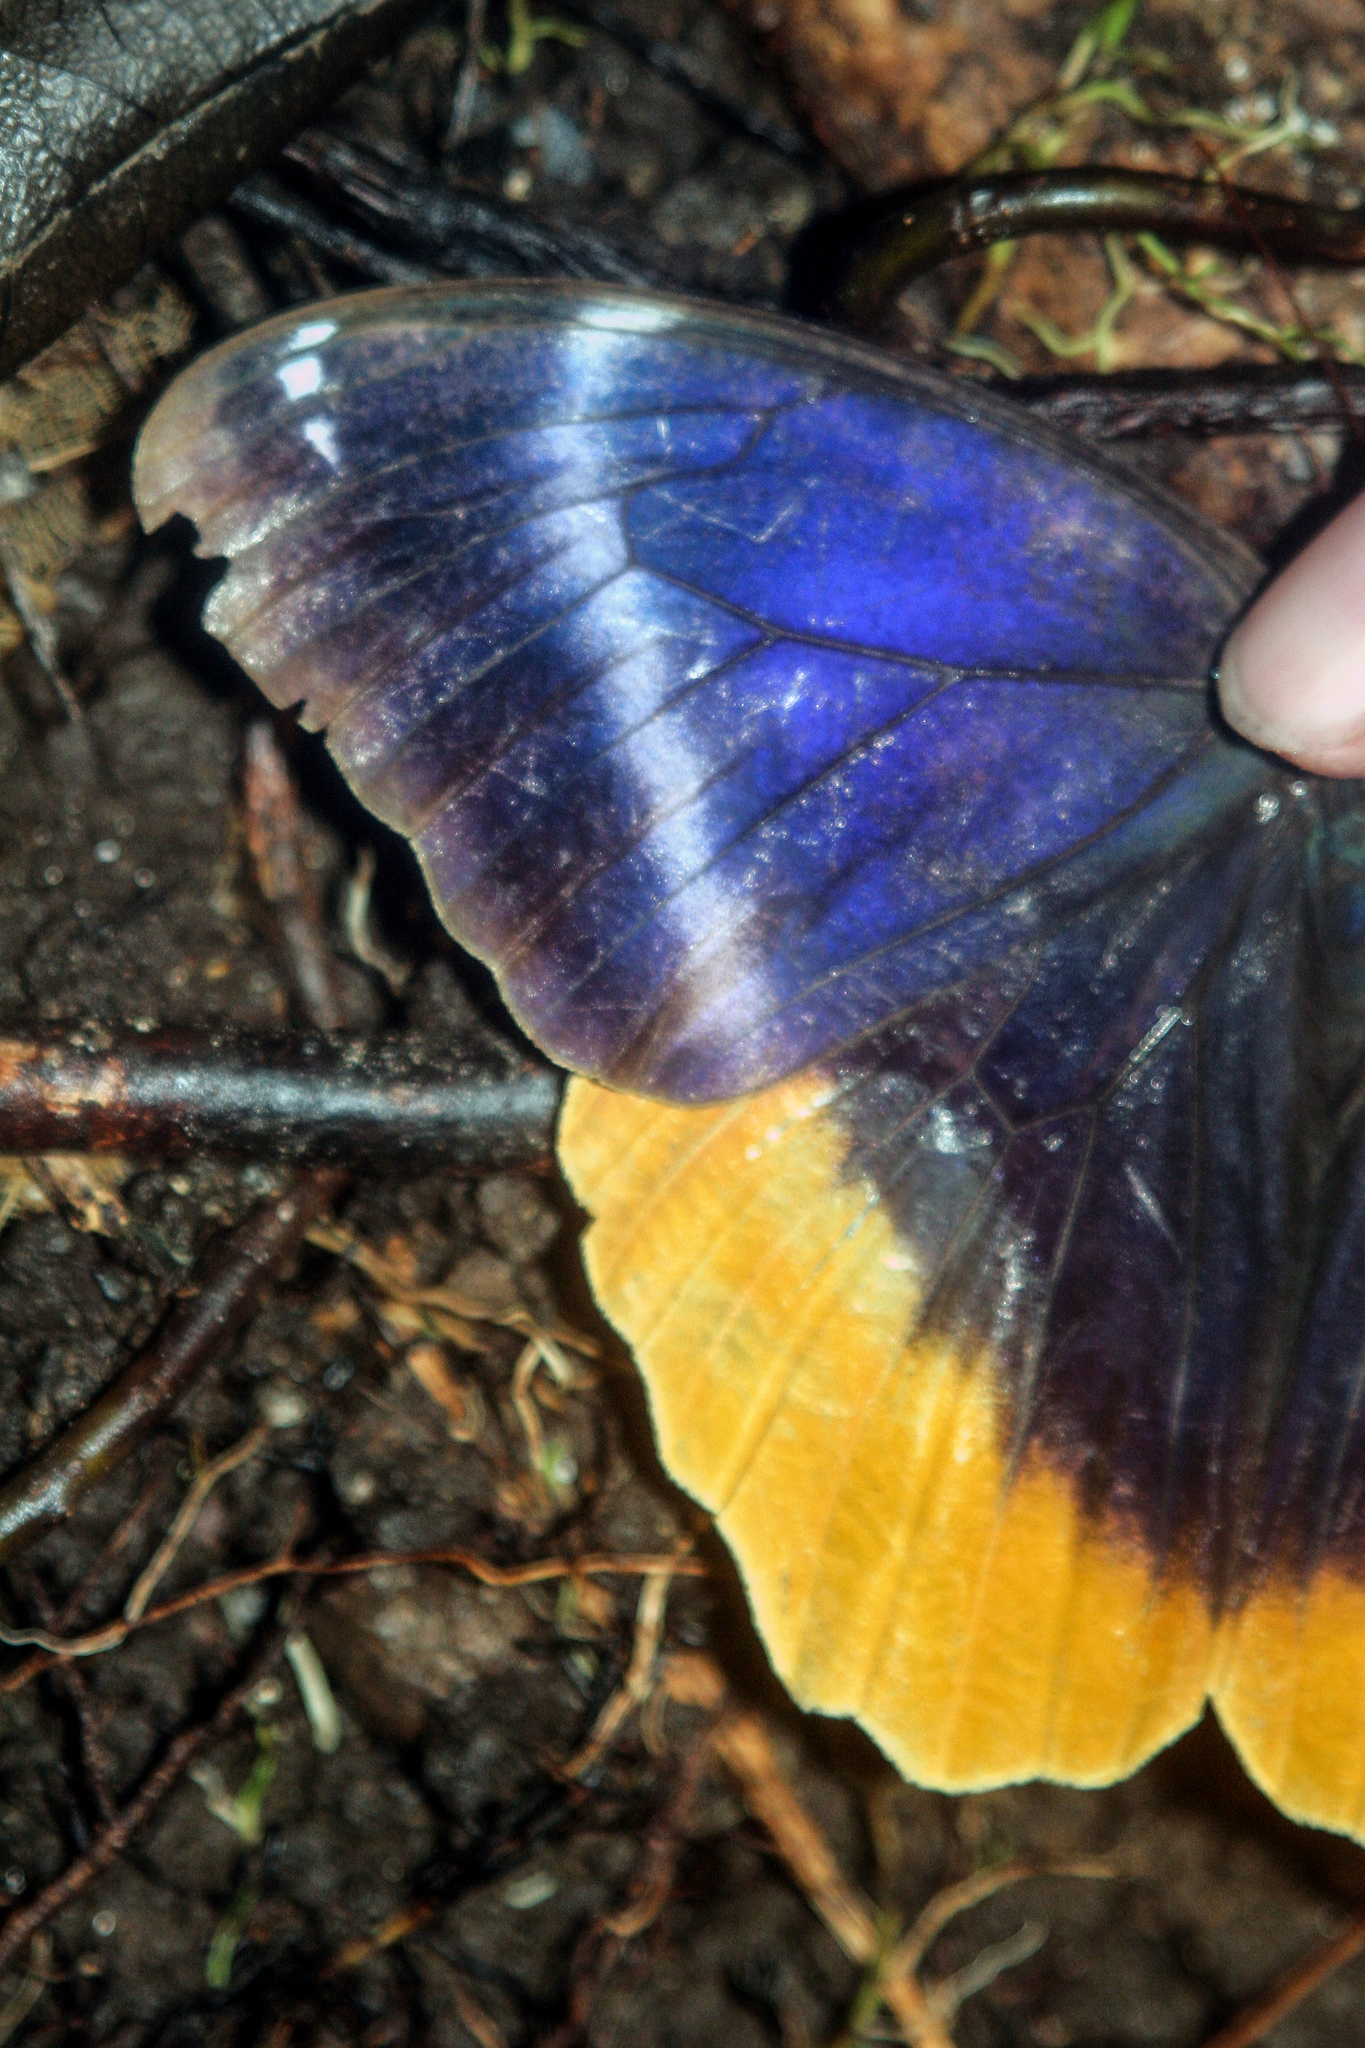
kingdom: Animalia
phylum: Arthropoda
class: Insecta
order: Lepidoptera
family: Nymphalidae
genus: Caligo
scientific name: Caligo uranus
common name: Gold-edged owl-butterfly
